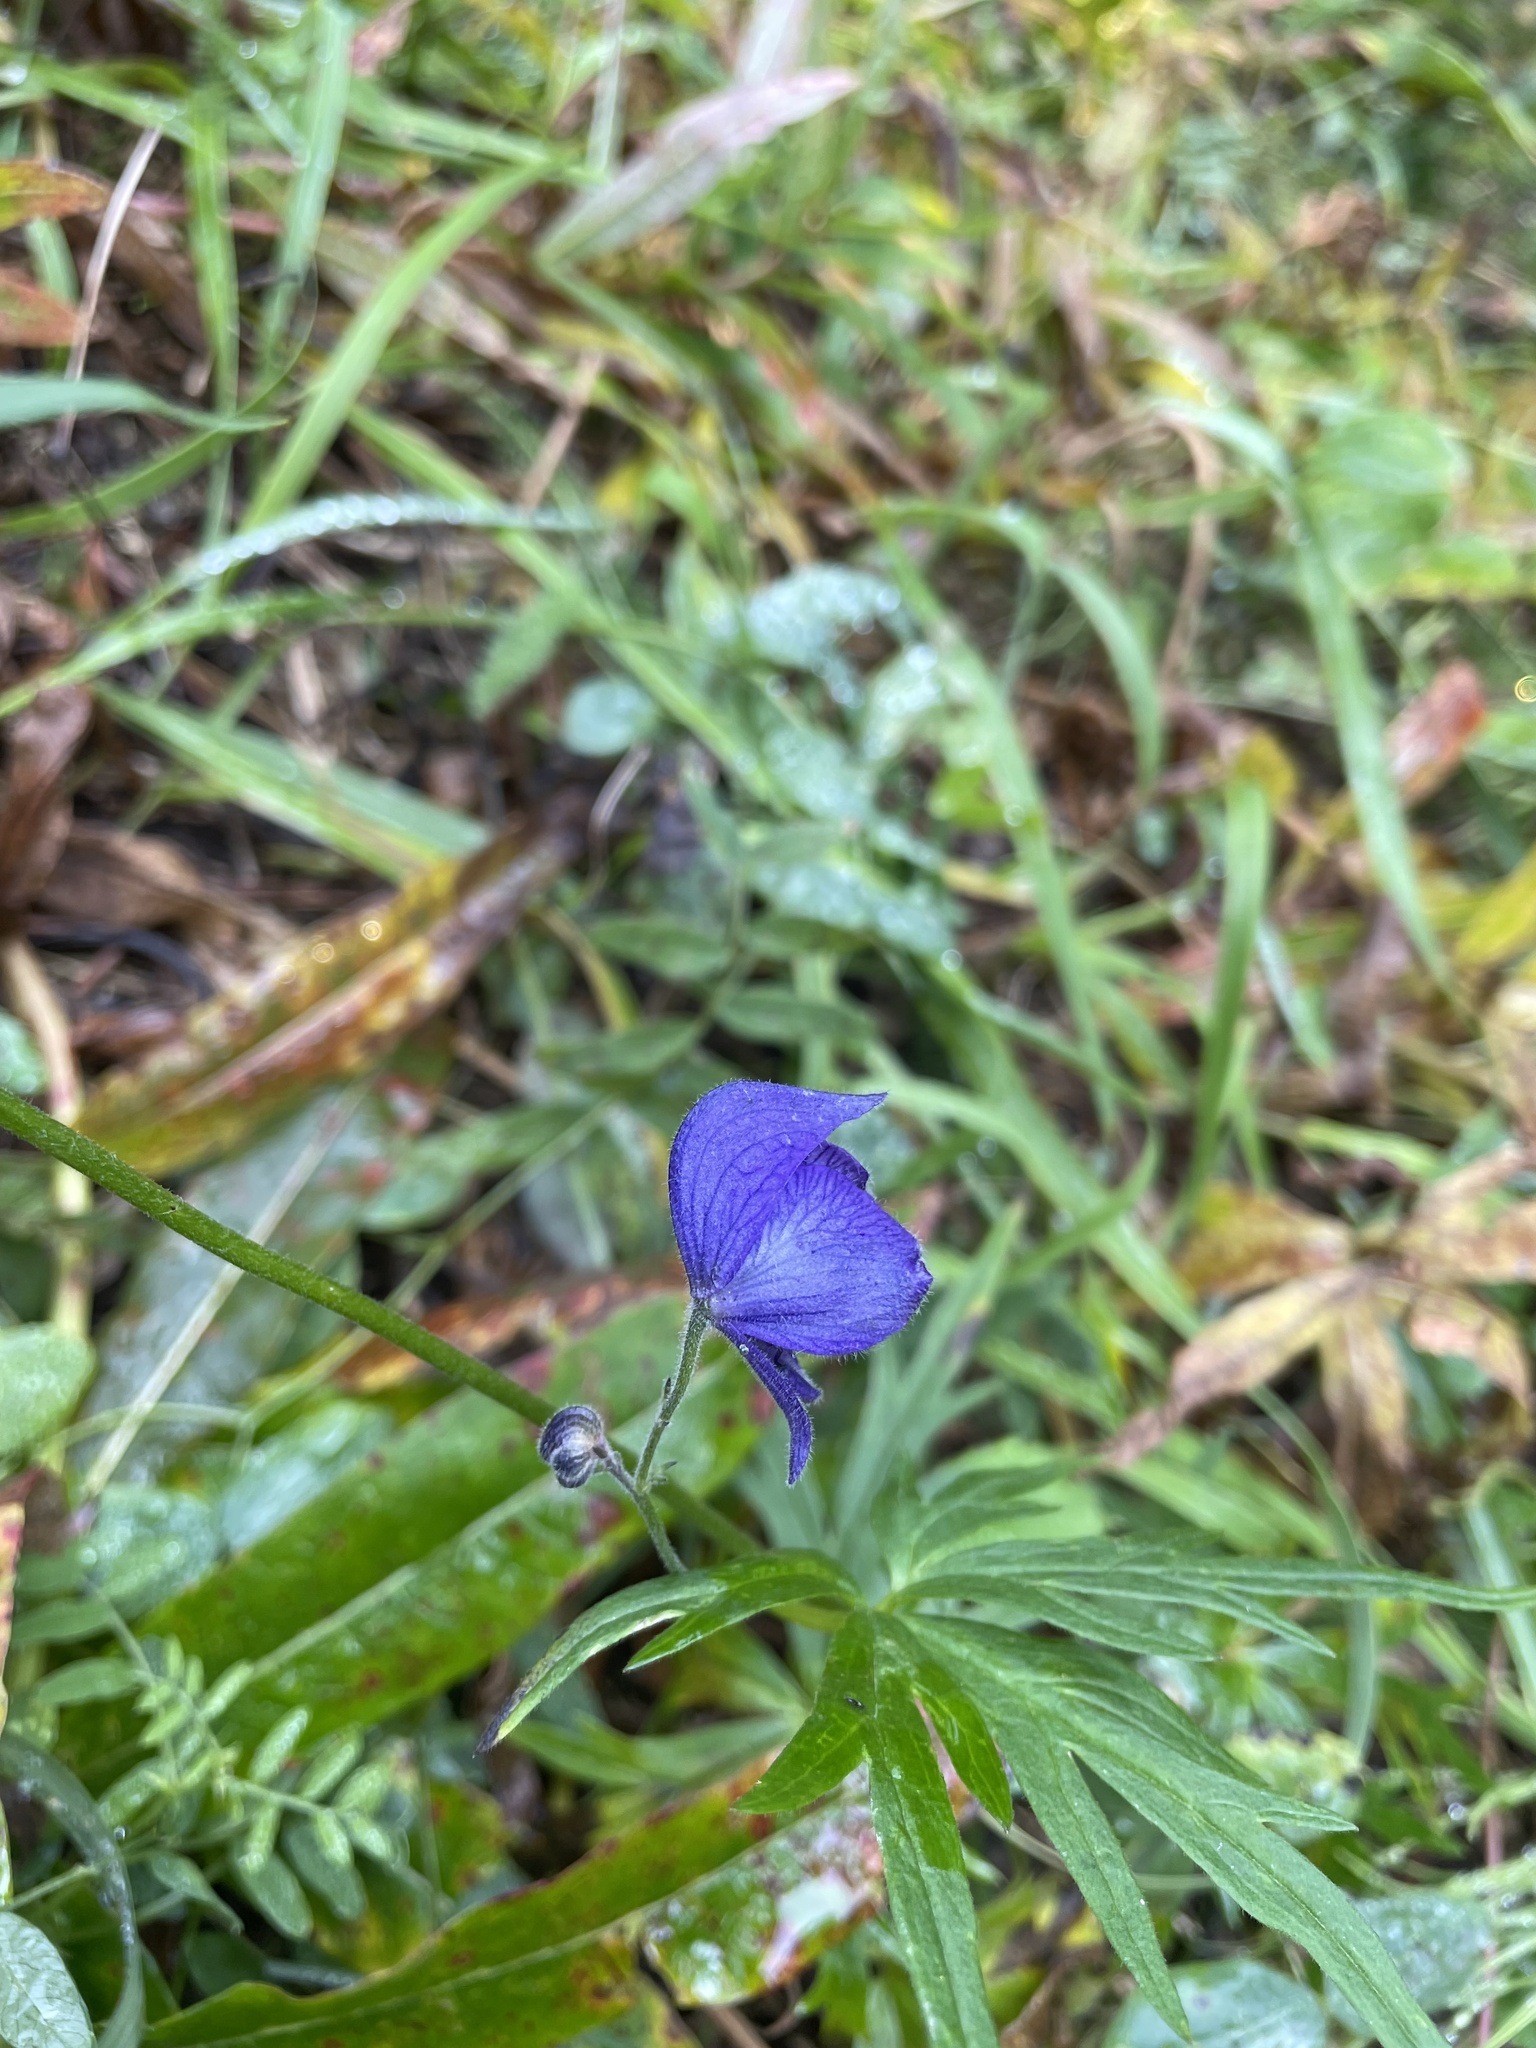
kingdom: Plantae
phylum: Tracheophyta
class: Magnoliopsida
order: Ranunculales
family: Ranunculaceae
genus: Aconitum
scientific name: Aconitum delphiniifolium
